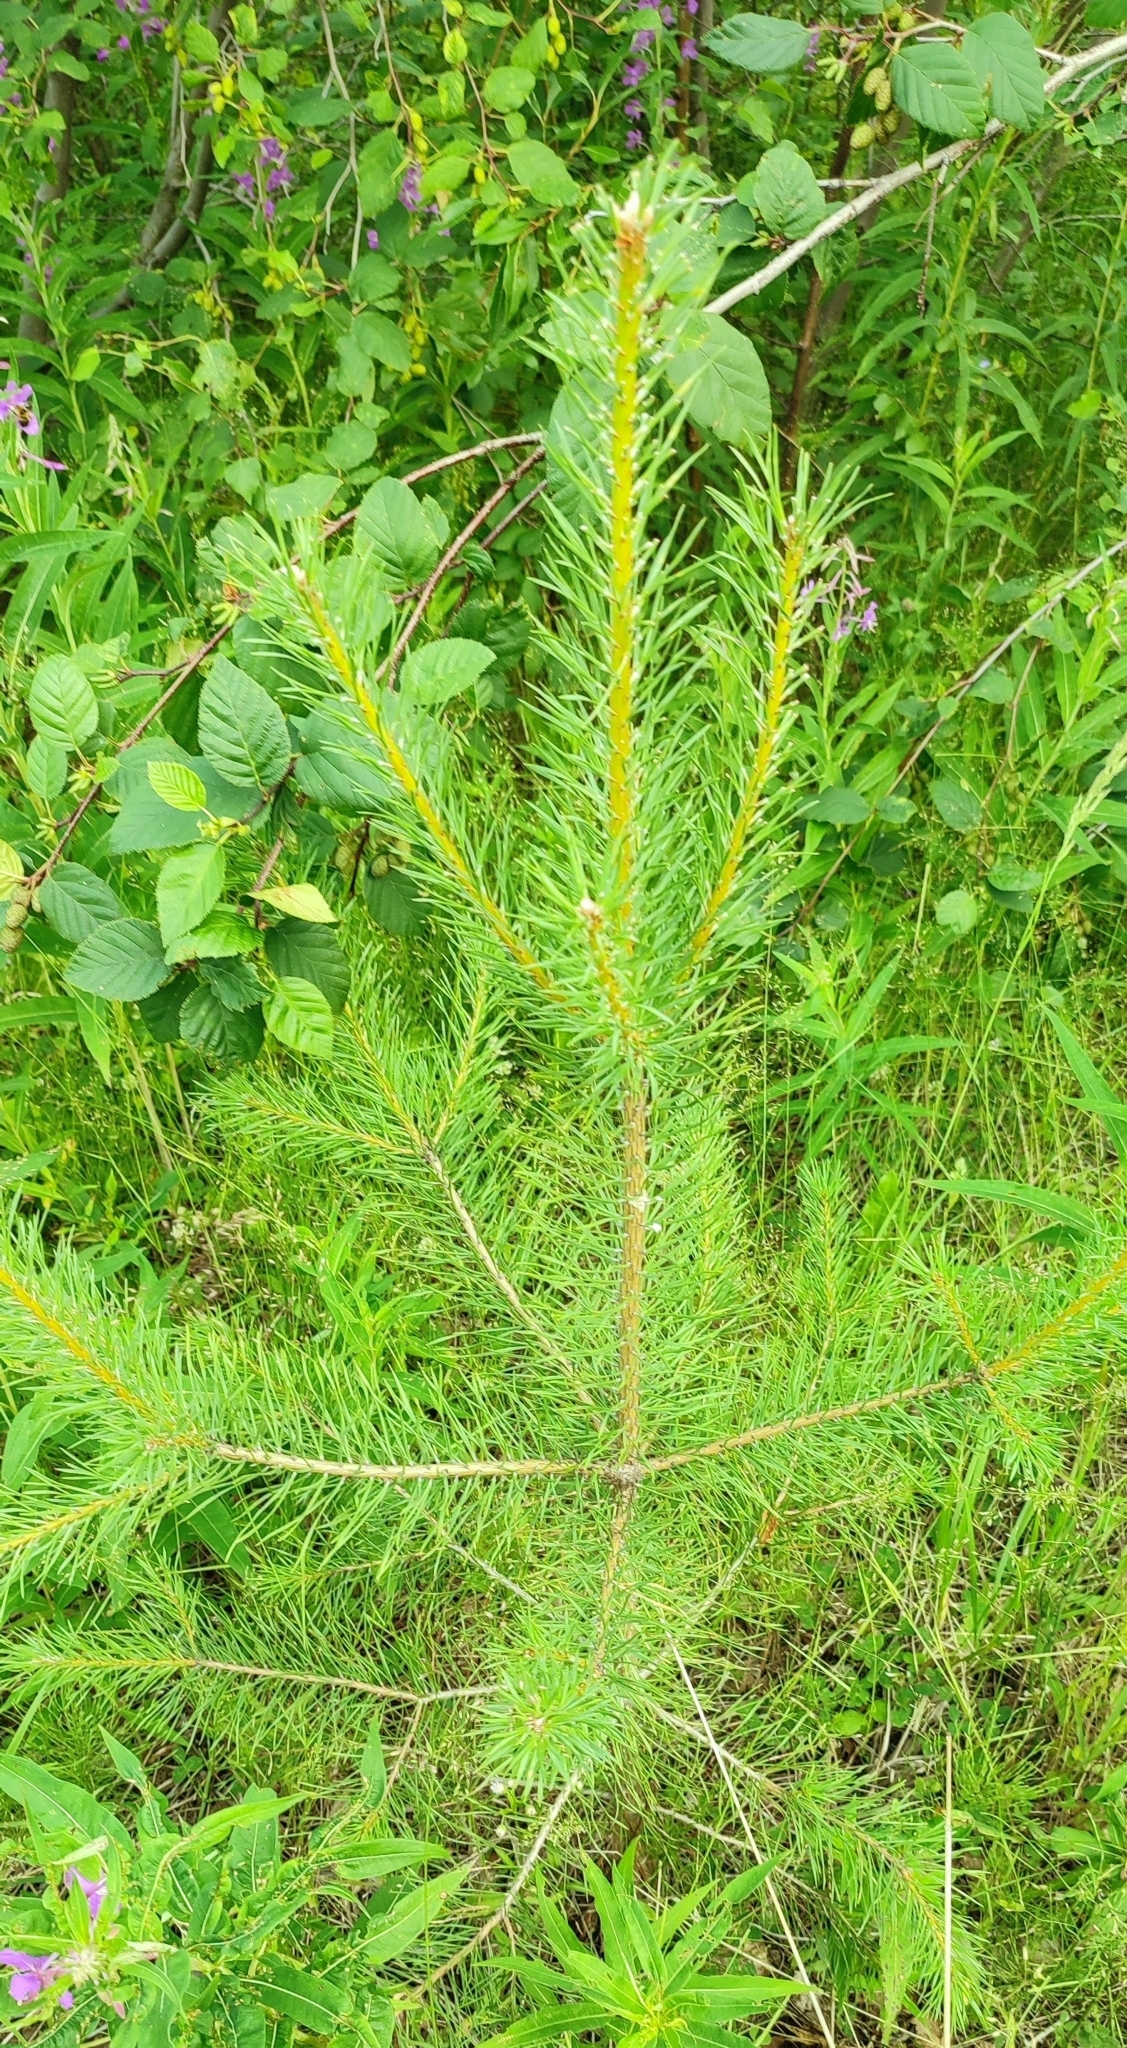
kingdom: Plantae
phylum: Tracheophyta
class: Pinopsida
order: Pinales
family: Pinaceae
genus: Pinus
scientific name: Pinus sylvestris
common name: Scots pine
